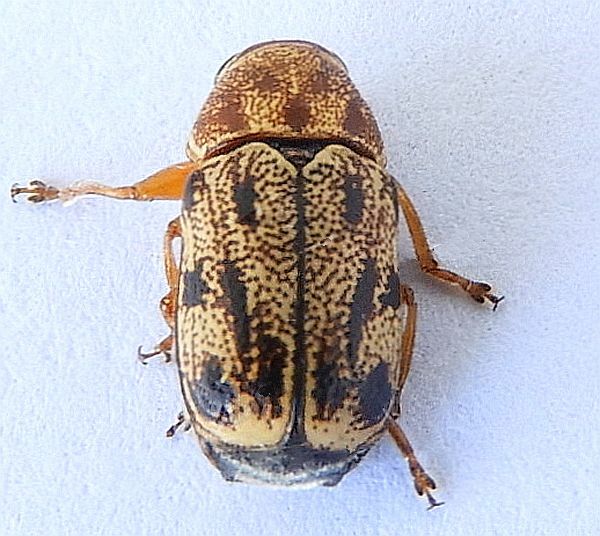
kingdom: Animalia
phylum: Arthropoda
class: Insecta
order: Coleoptera
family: Chrysomelidae
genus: Pachybrachis
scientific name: Pachybrachis nobilis
